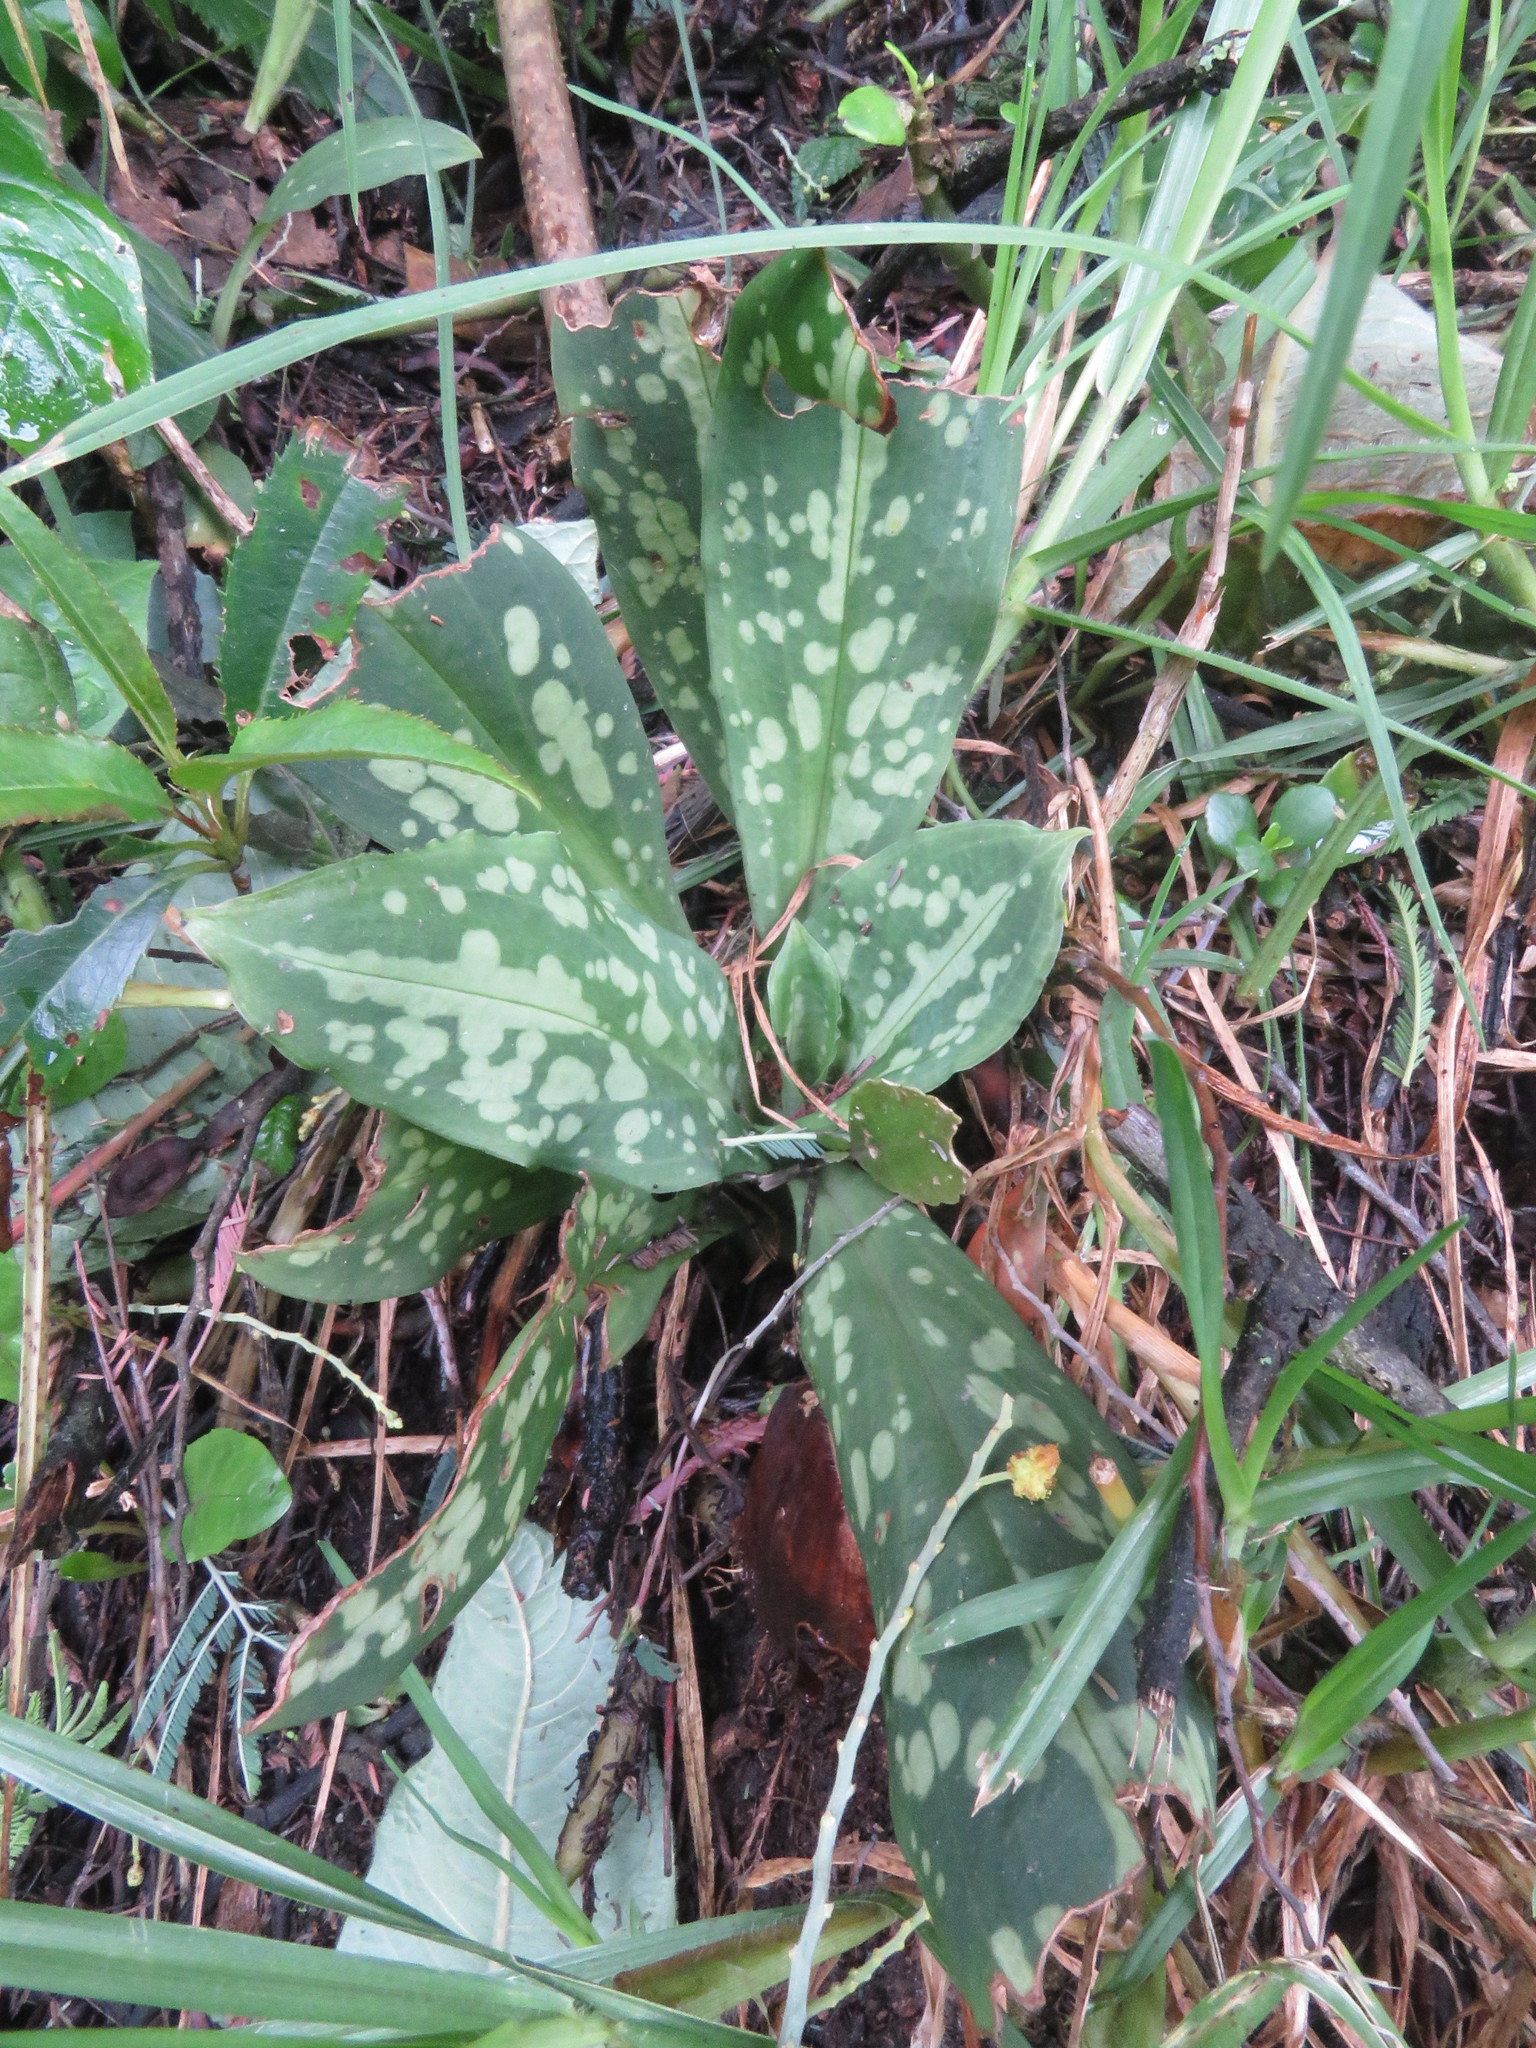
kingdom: Plantae
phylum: Tracheophyta
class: Liliopsida
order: Asparagales
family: Orchidaceae
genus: Stenorrhynchos
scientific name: Stenorrhynchos albidomaculatum
